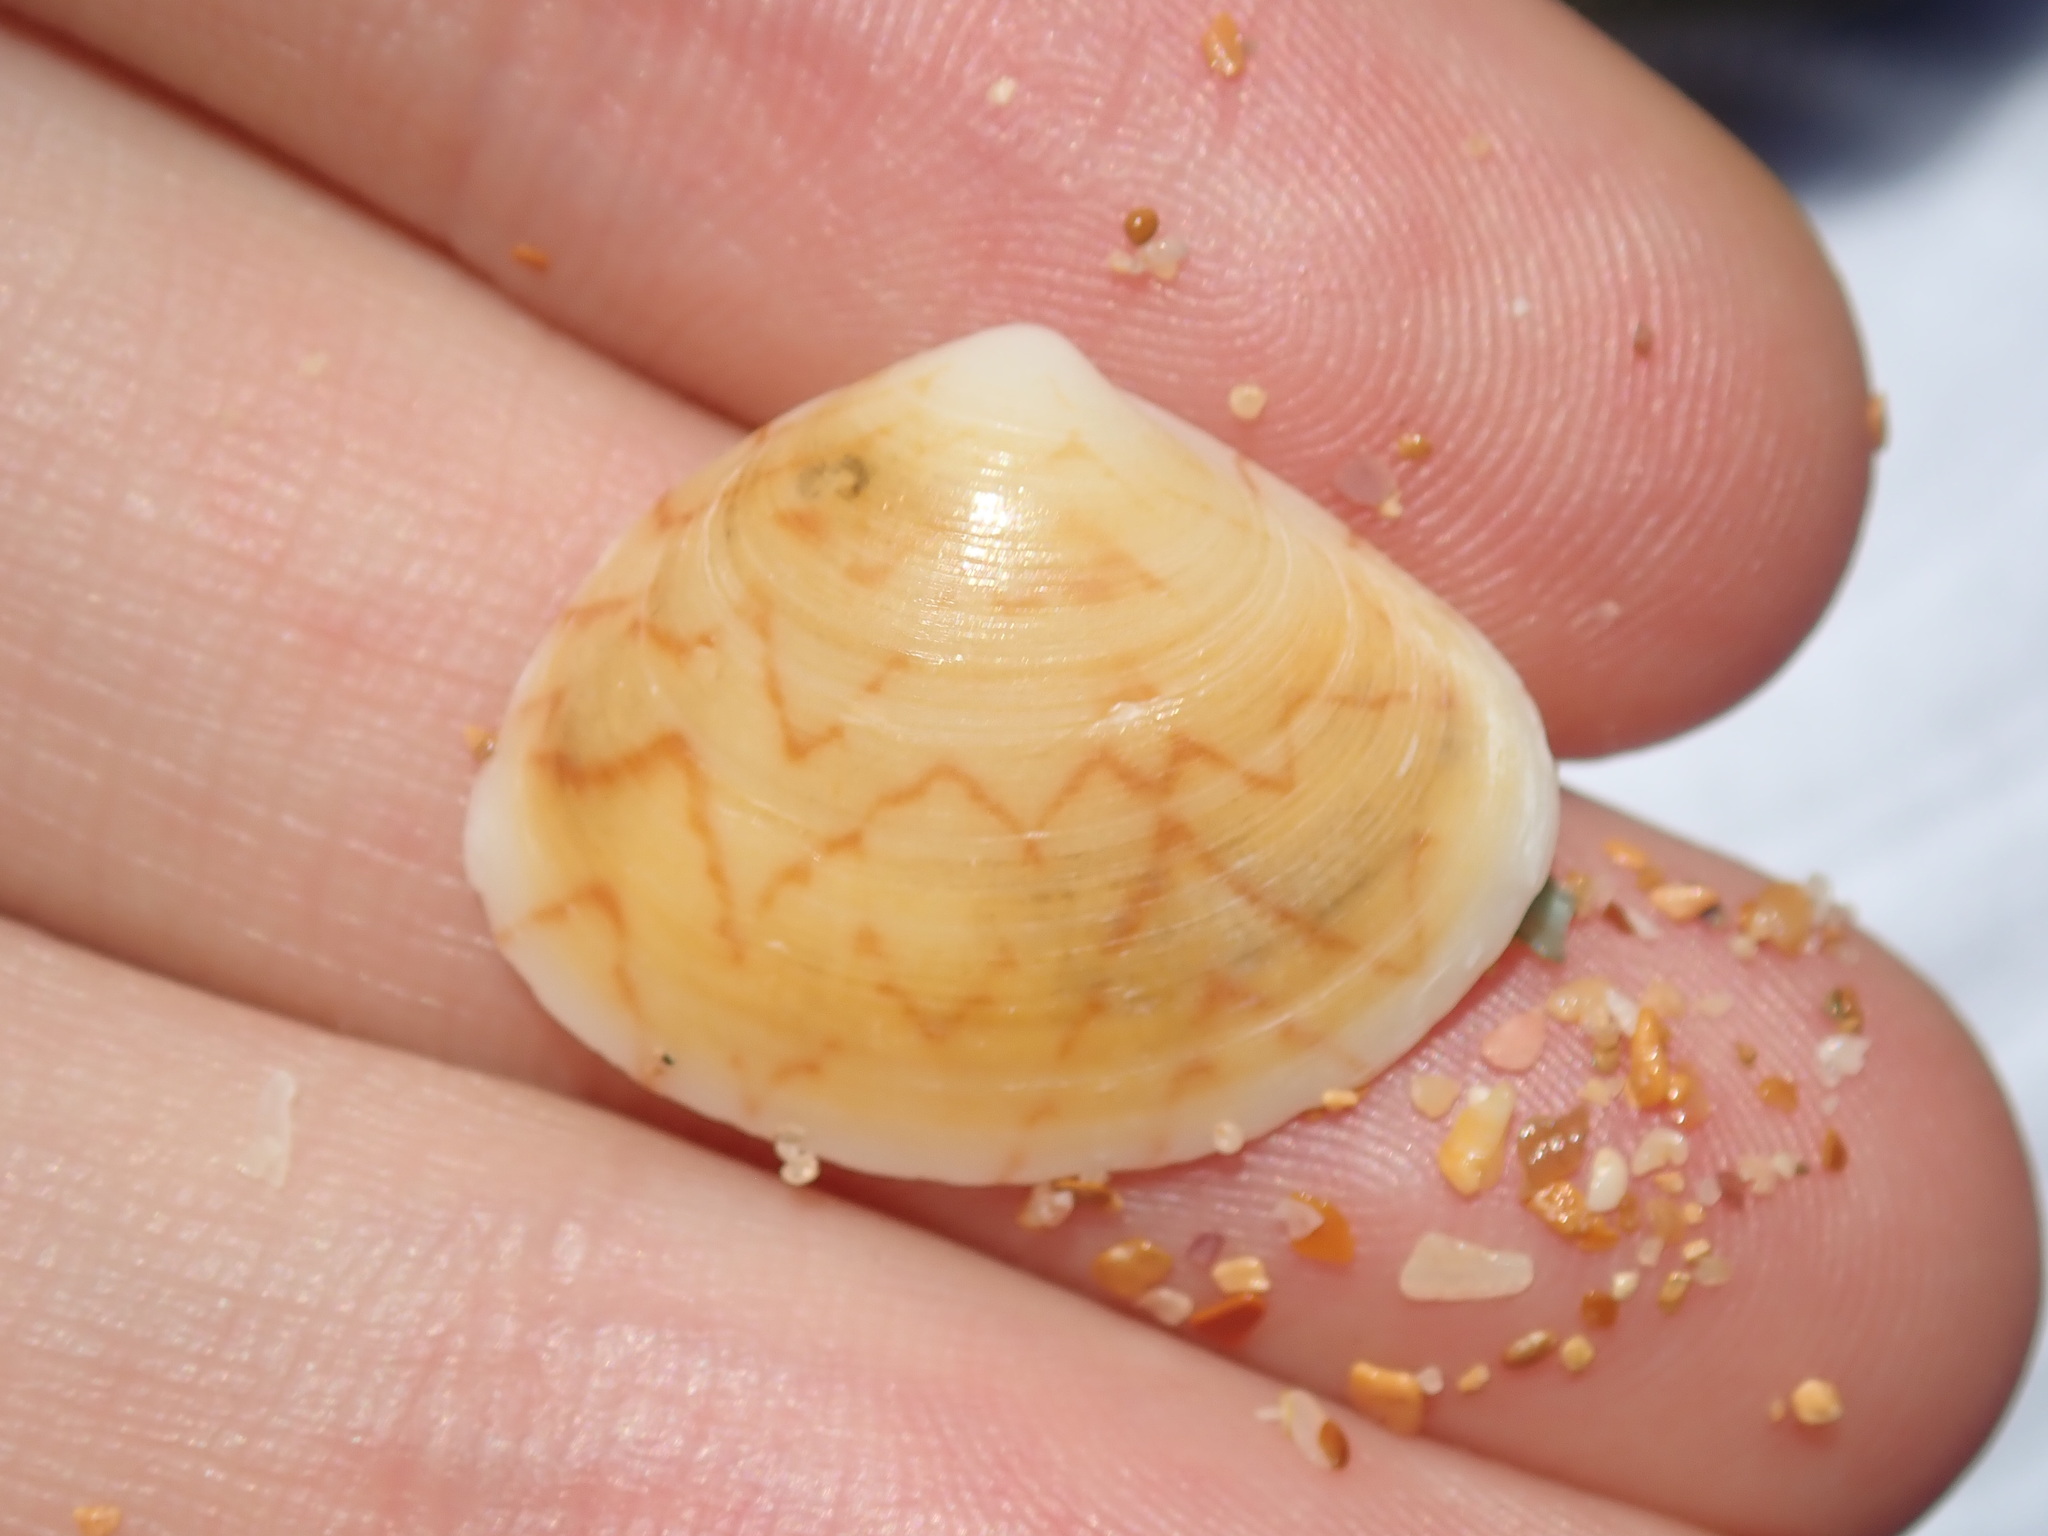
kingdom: Animalia
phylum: Mollusca
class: Bivalvia
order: Venerida
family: Veneridae
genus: Gomphina
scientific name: Gomphina undulosa
